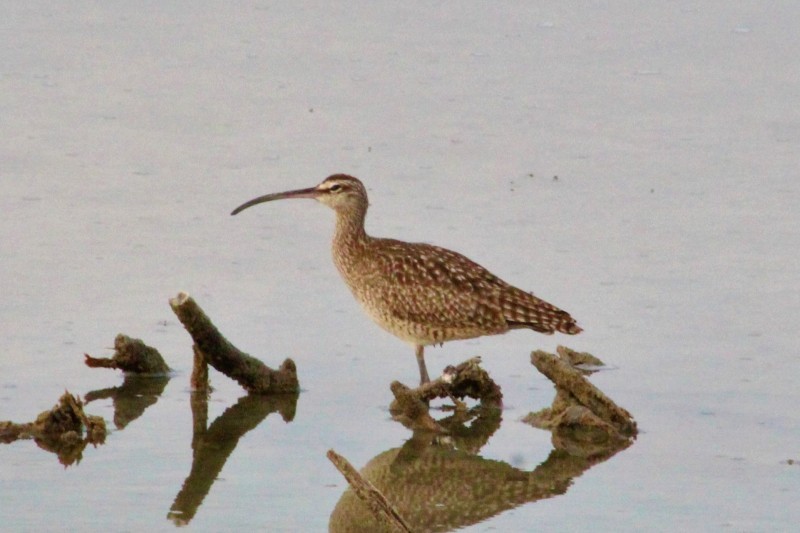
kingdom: Animalia
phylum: Chordata
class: Aves
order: Charadriiformes
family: Scolopacidae
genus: Numenius
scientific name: Numenius phaeopus
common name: Whimbrel
